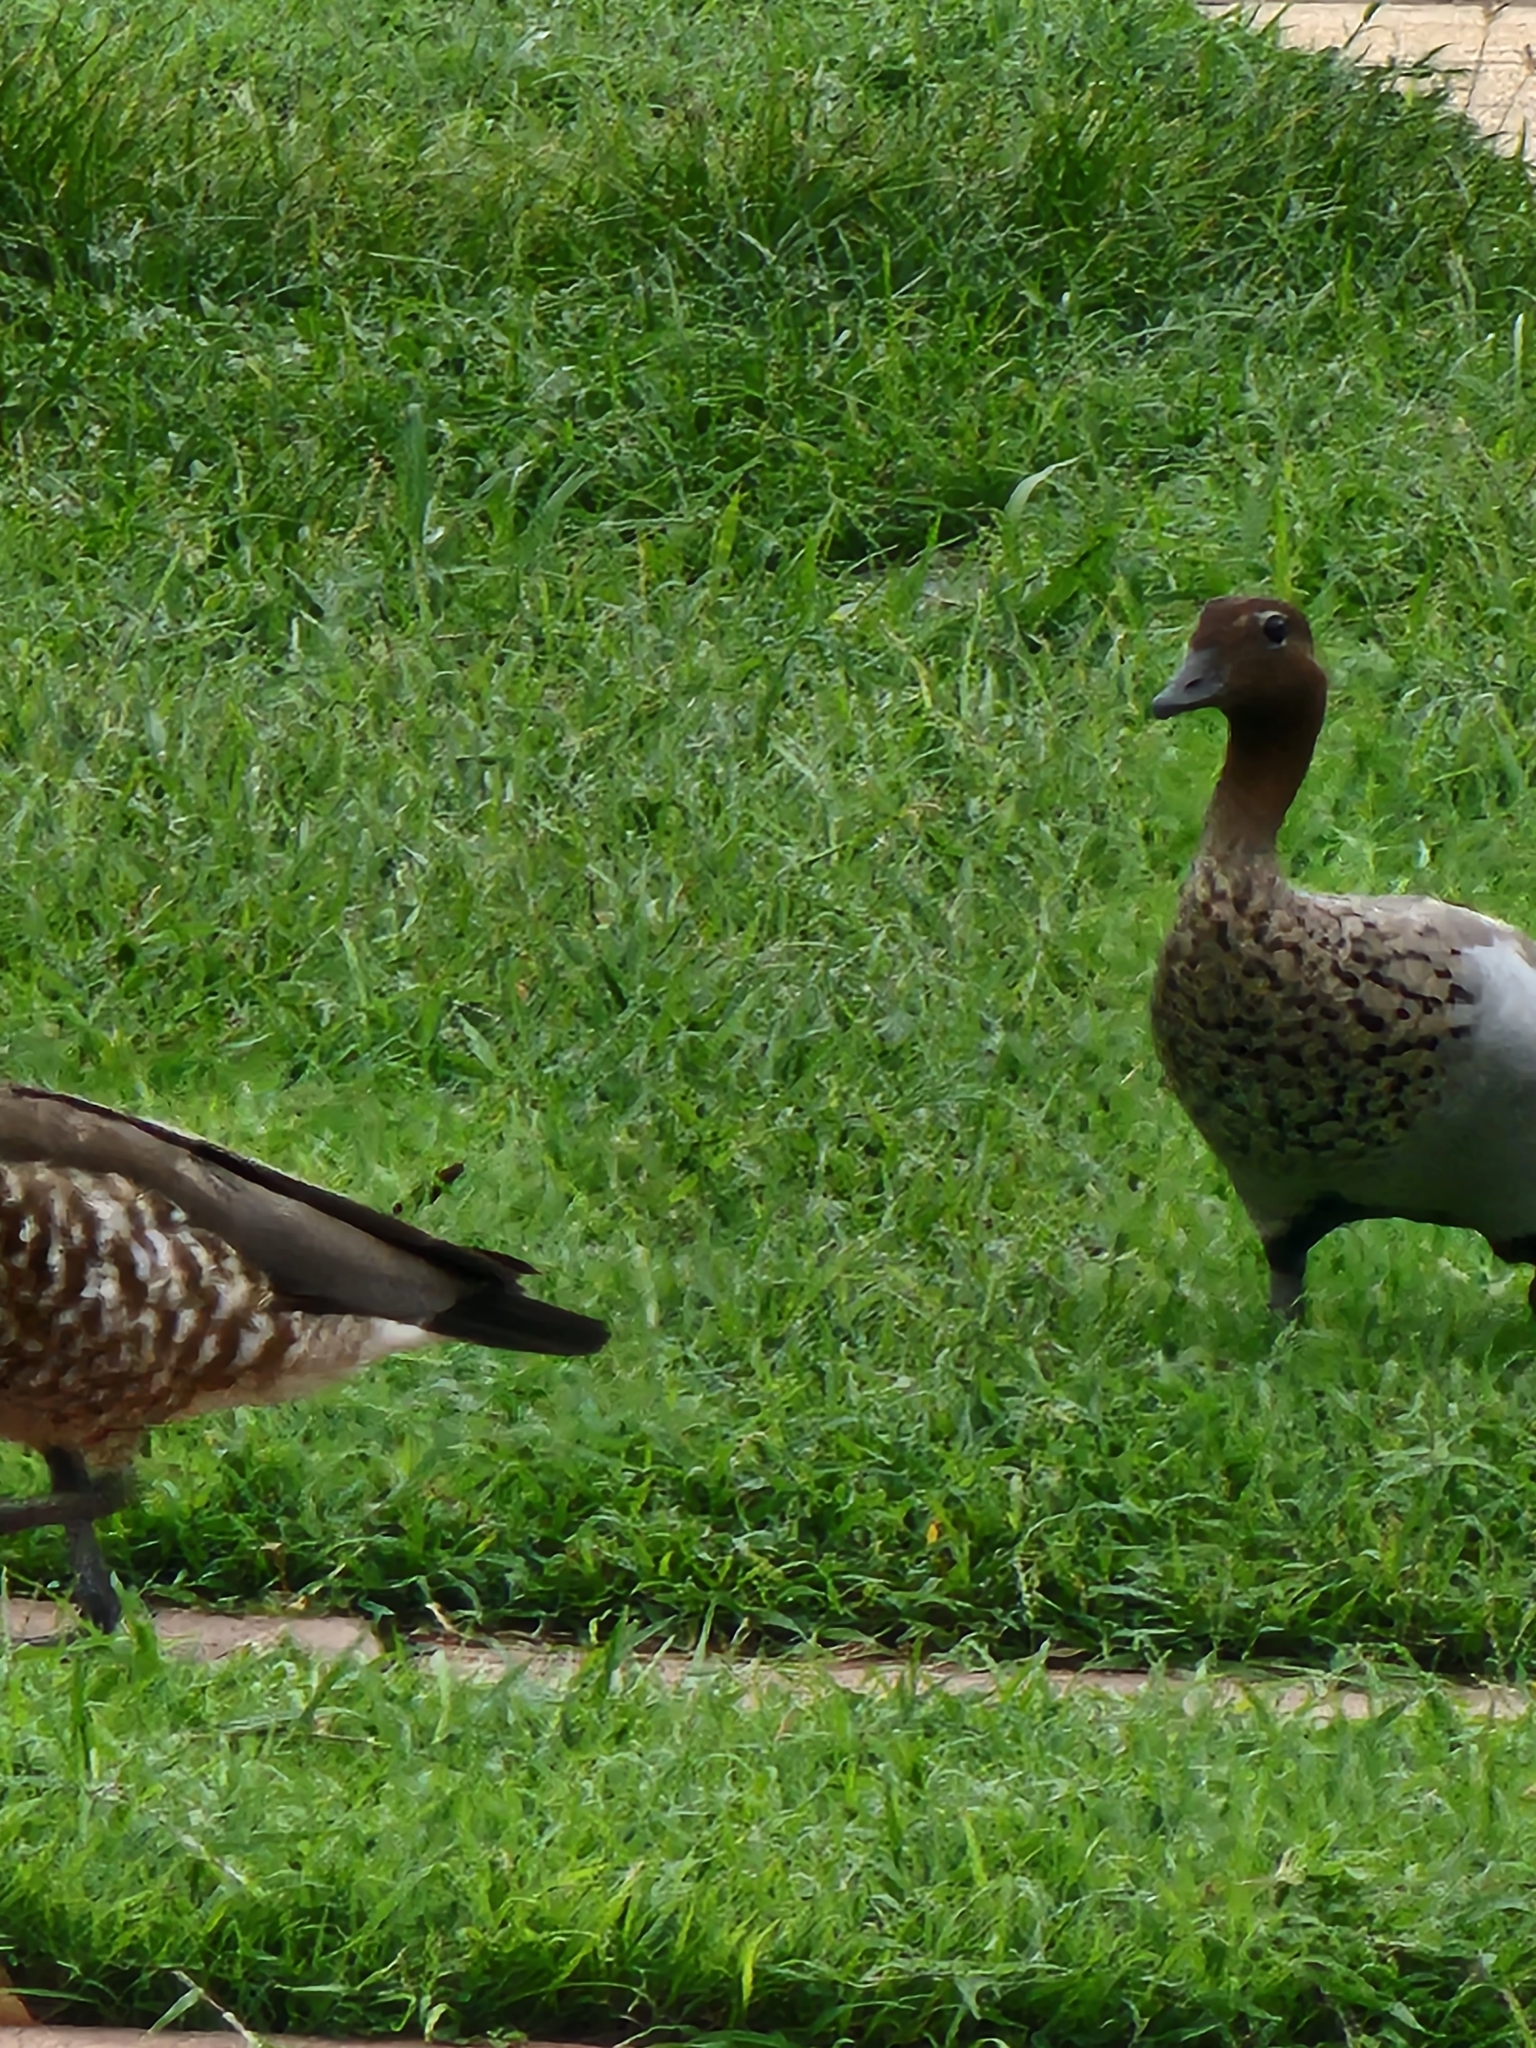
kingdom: Animalia
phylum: Chordata
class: Aves
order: Anseriformes
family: Anatidae
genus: Chenonetta
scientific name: Chenonetta jubata
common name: Maned duck
